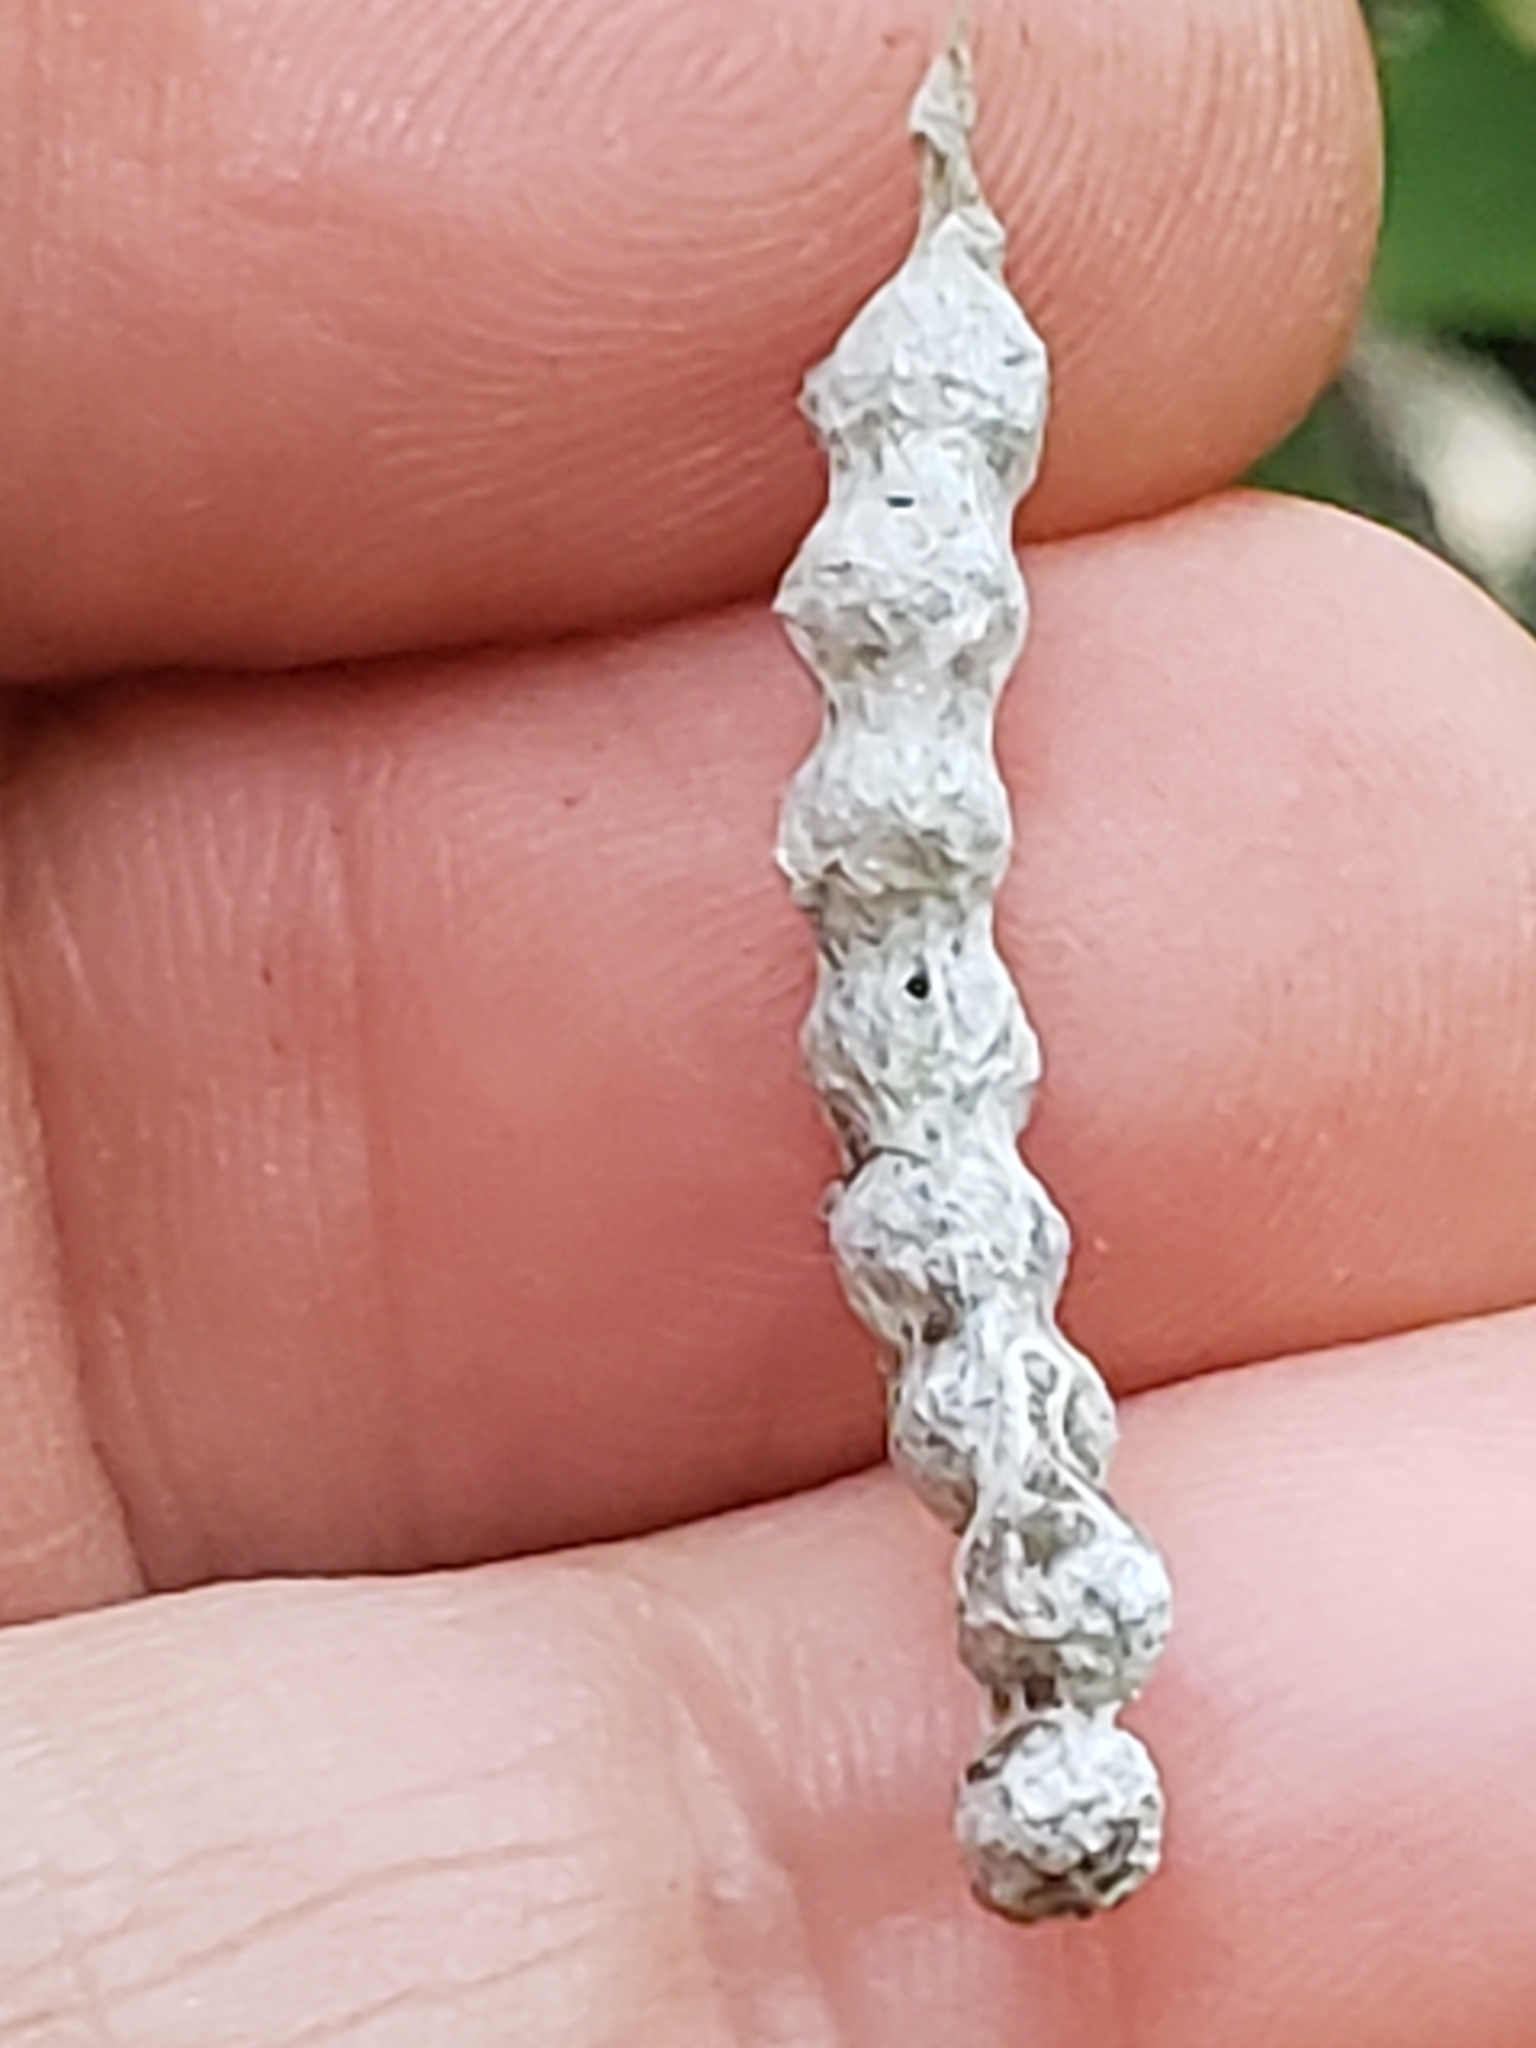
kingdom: Animalia
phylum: Arthropoda
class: Arachnida
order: Araneae
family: Araneidae
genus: Mecynogea
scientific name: Mecynogea lemniscata
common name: Orb weavers
